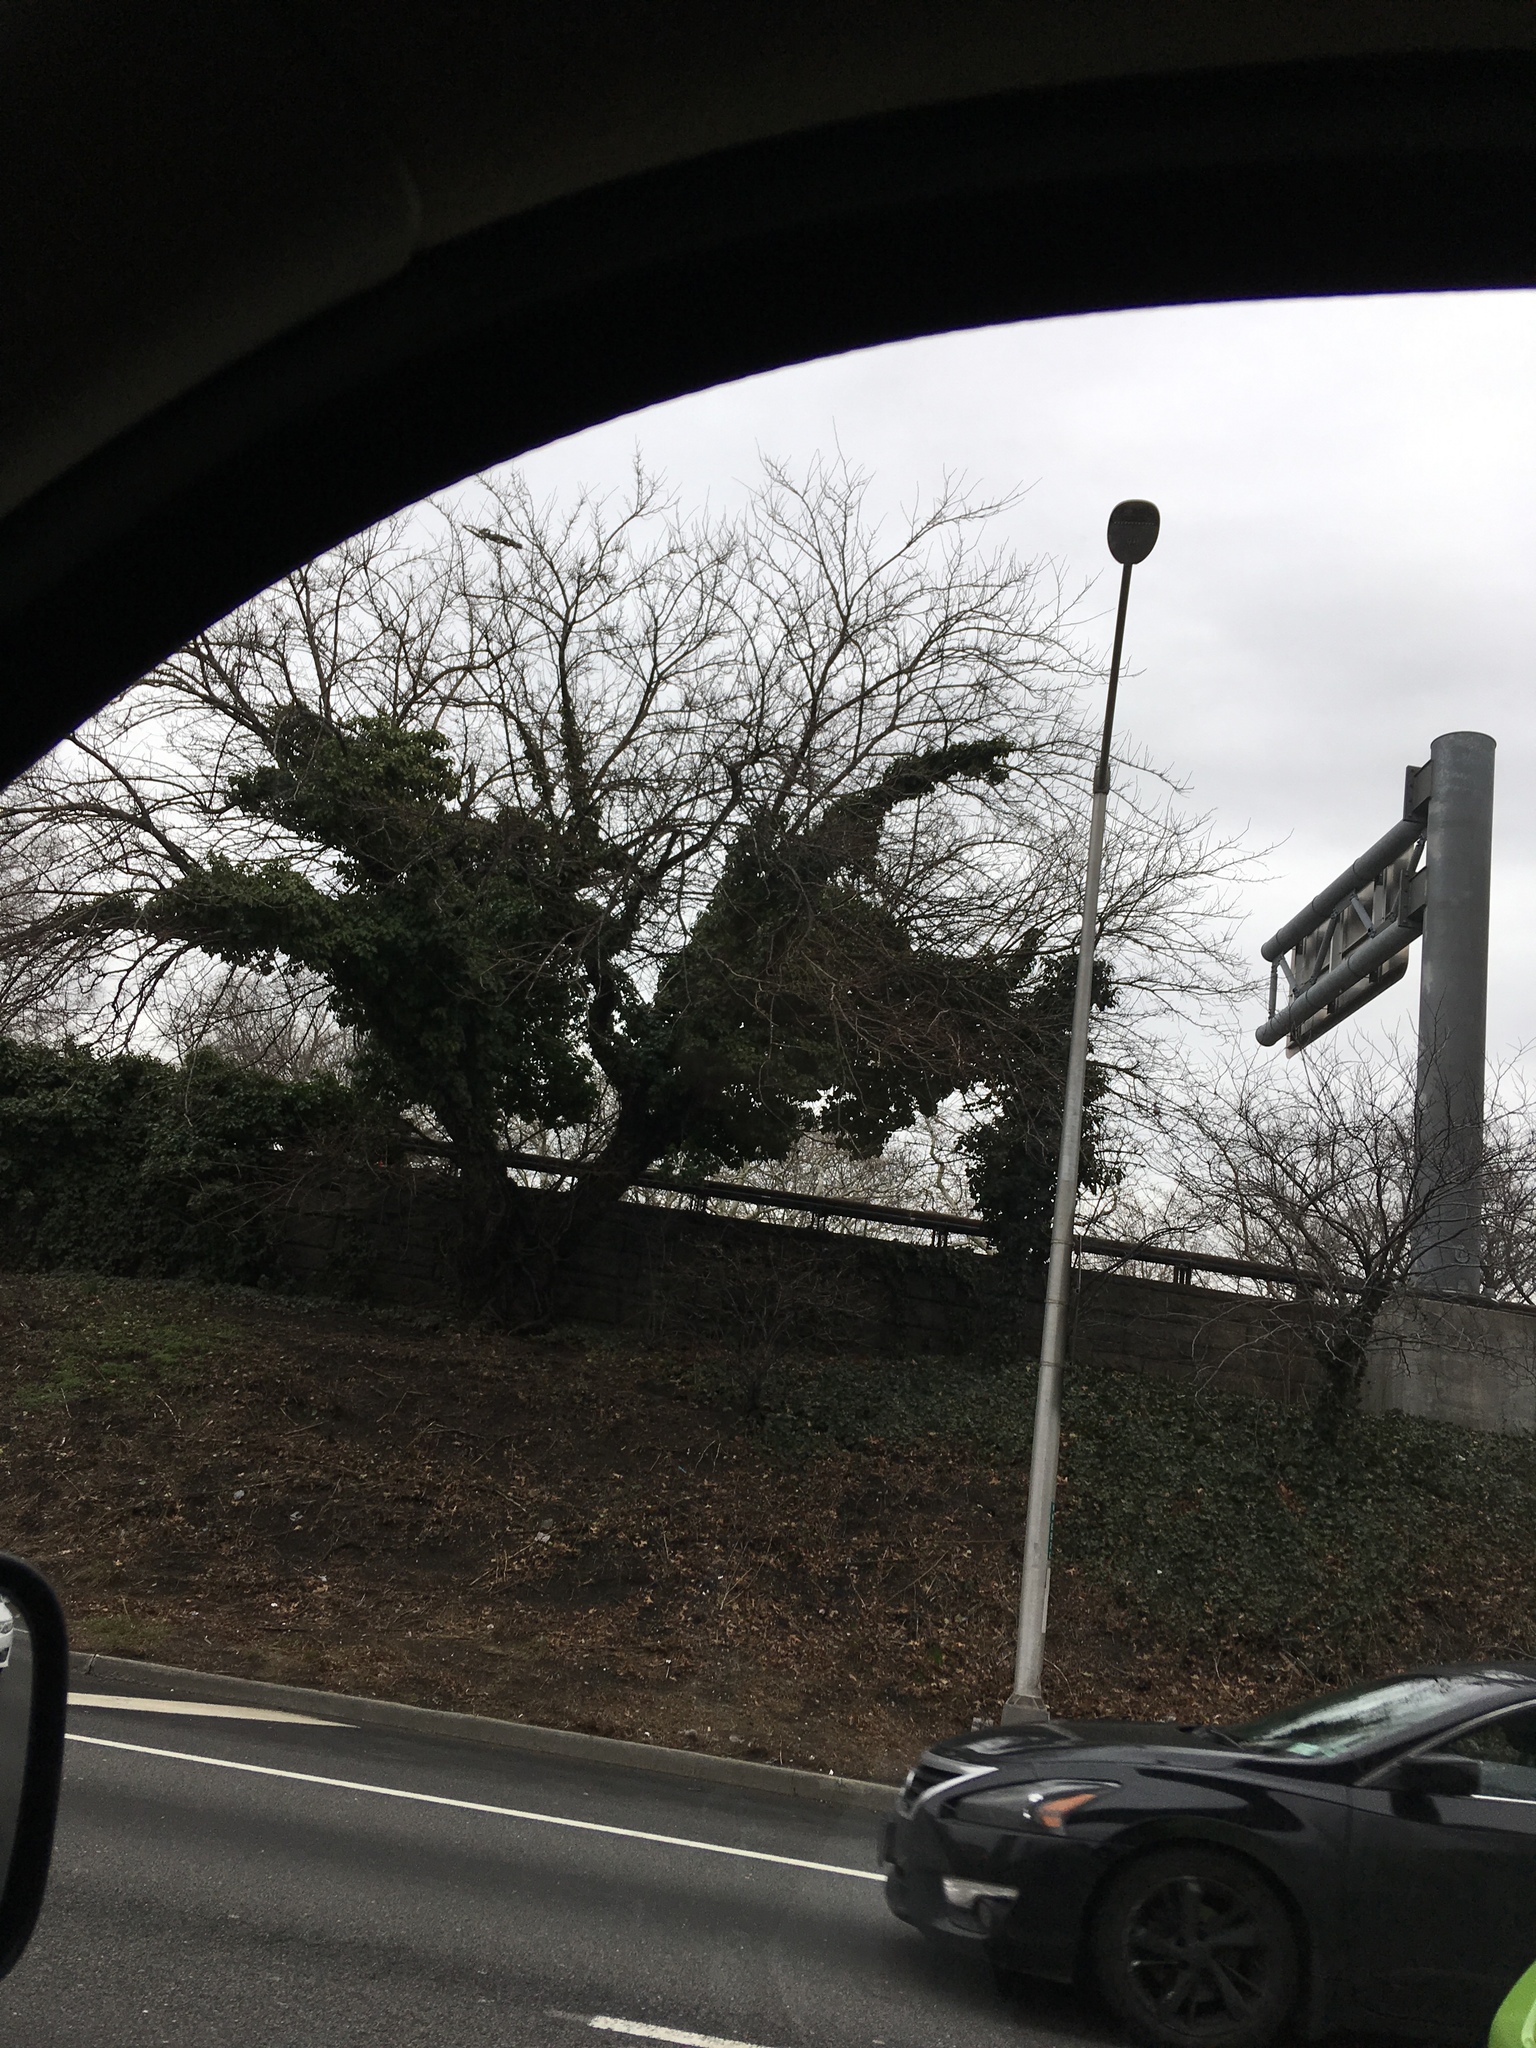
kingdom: Plantae
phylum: Tracheophyta
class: Magnoliopsida
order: Apiales
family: Araliaceae
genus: Hedera
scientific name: Hedera helix
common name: Ivy
